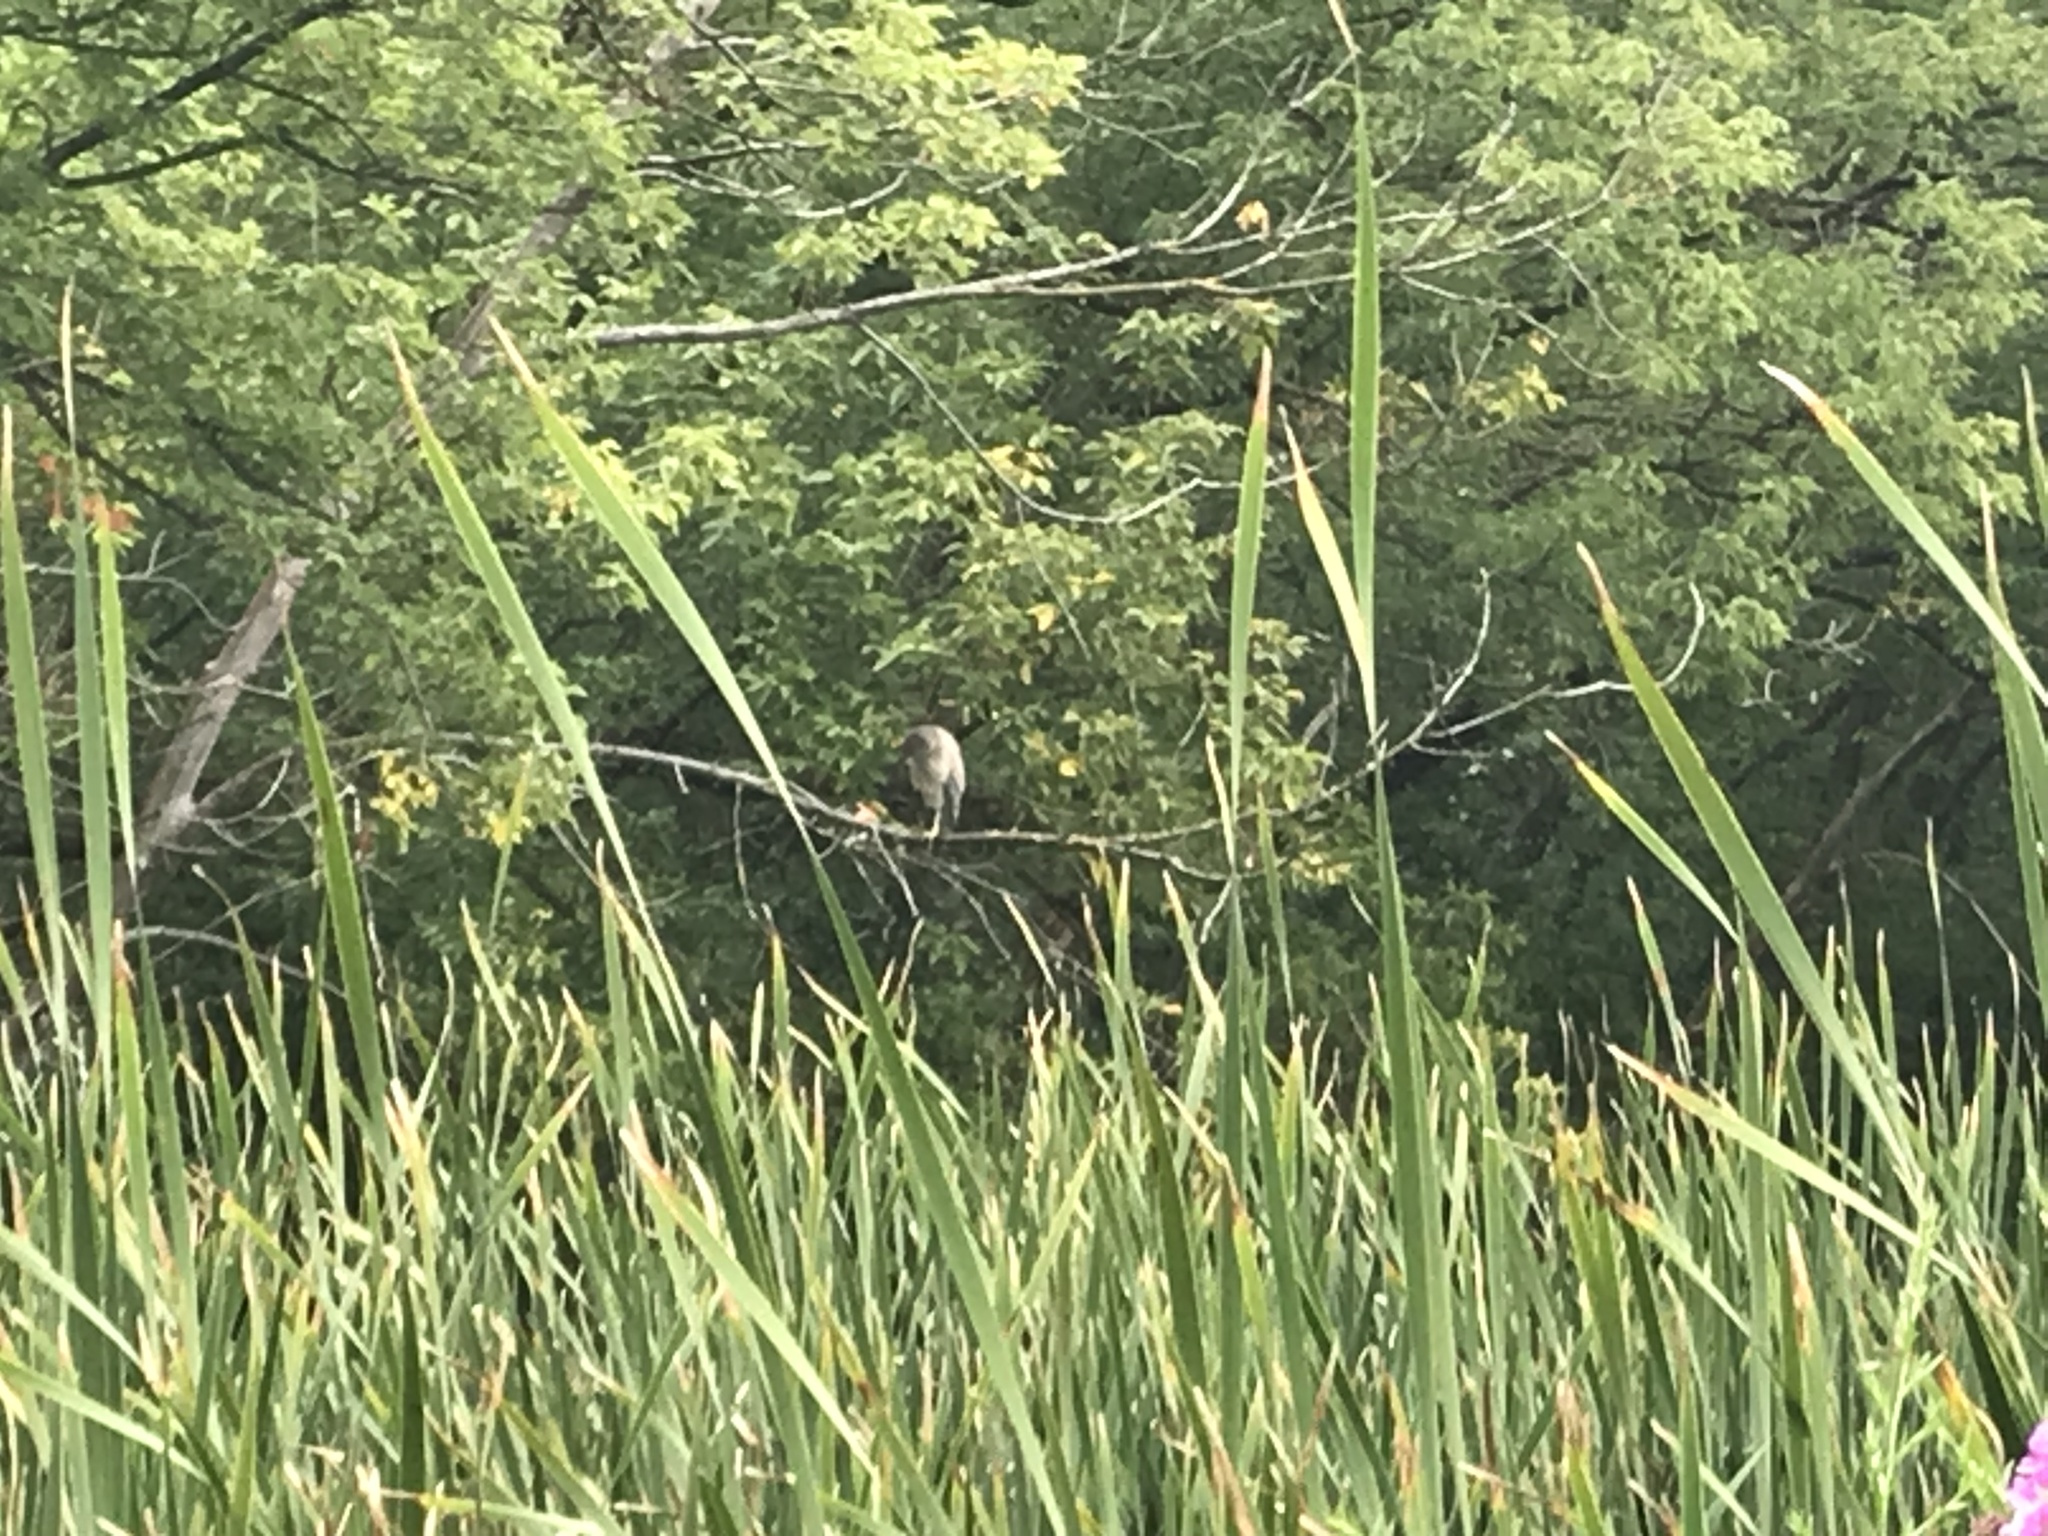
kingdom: Animalia
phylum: Chordata
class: Aves
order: Pelecaniformes
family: Ardeidae
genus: Nycticorax
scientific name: Nycticorax nycticorax
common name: Black-crowned night heron
